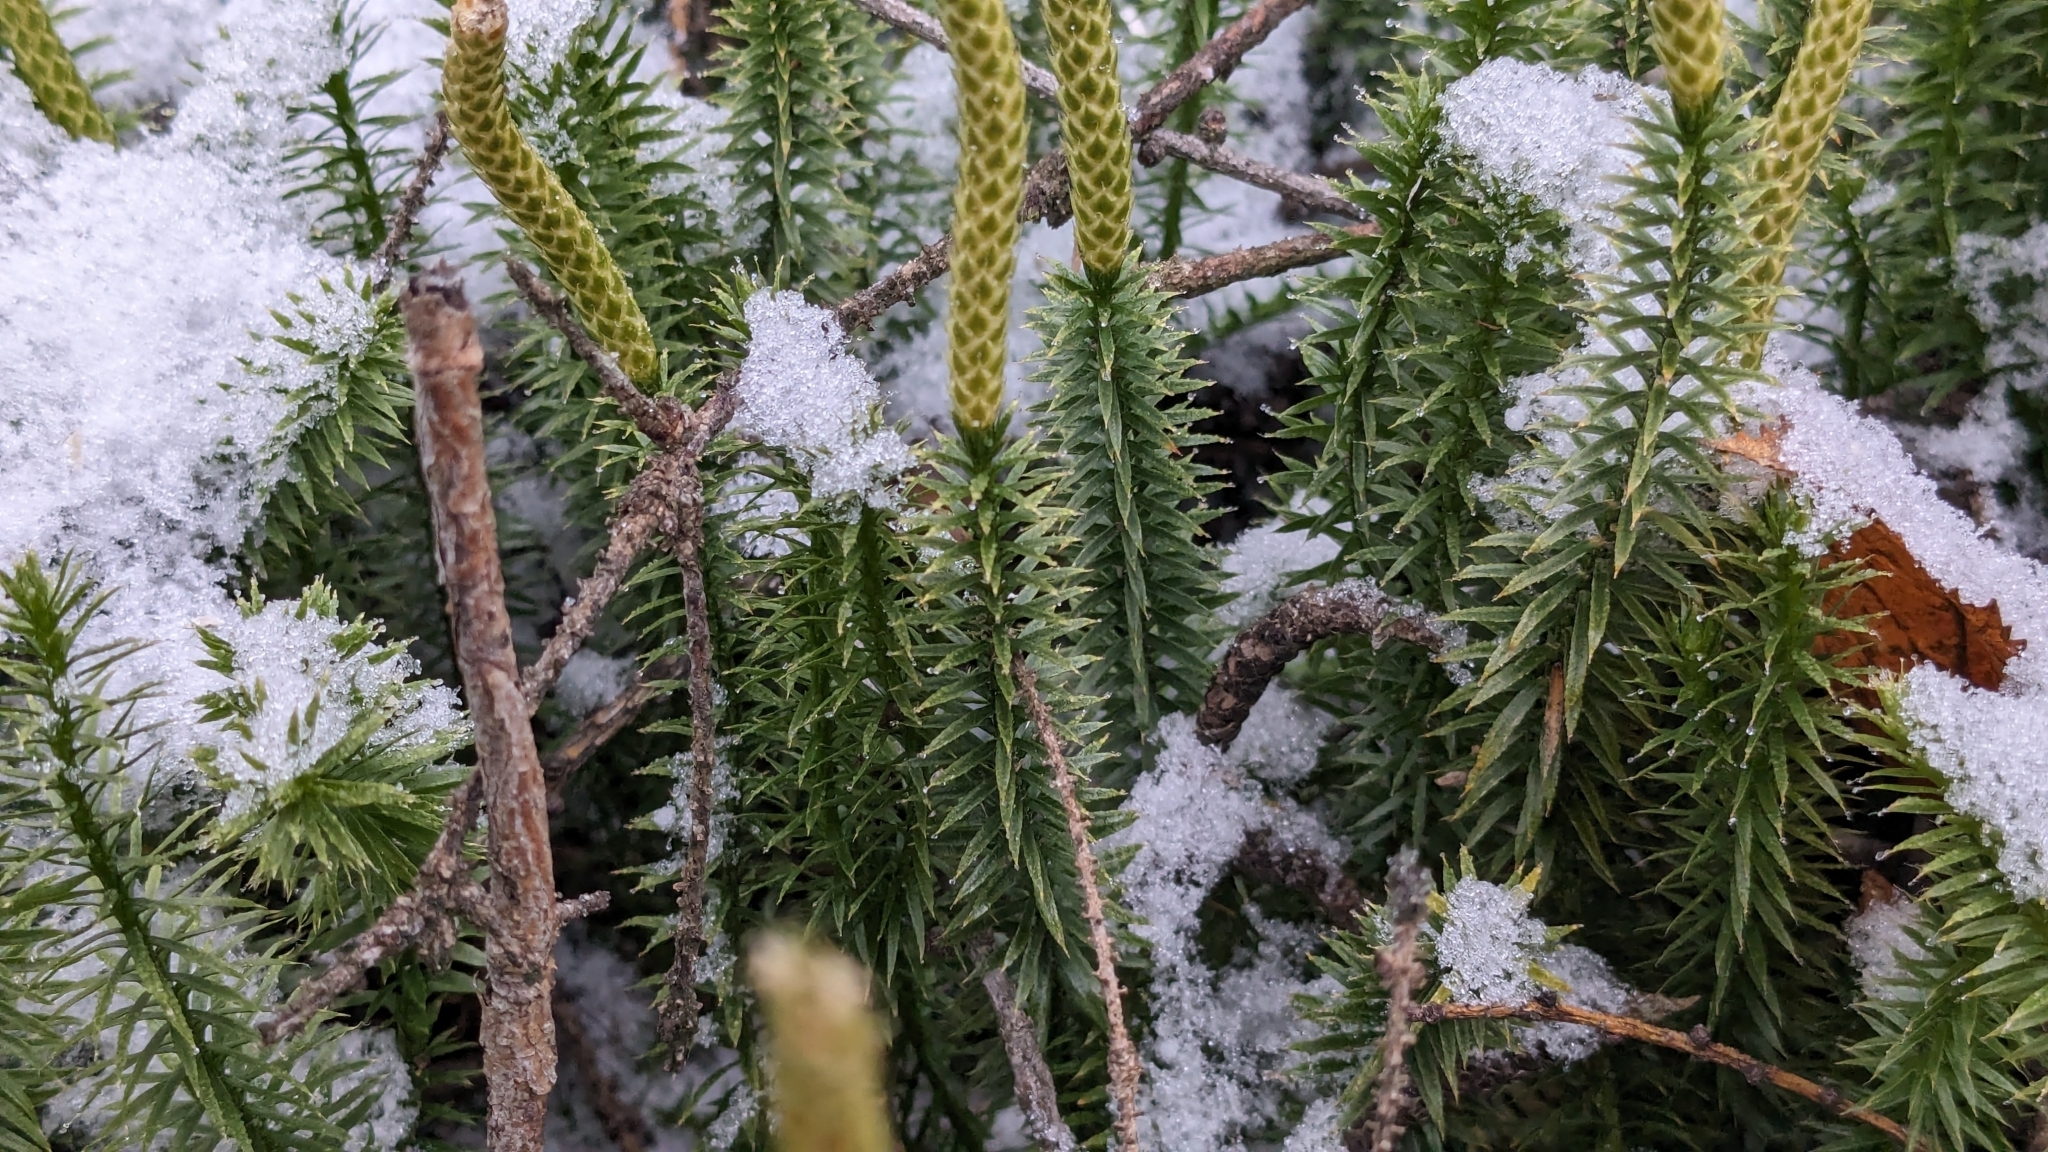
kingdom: Plantae
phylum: Tracheophyta
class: Lycopodiopsida
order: Lycopodiales
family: Lycopodiaceae
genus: Spinulum
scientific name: Spinulum annotinum
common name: Interrupted club-moss
